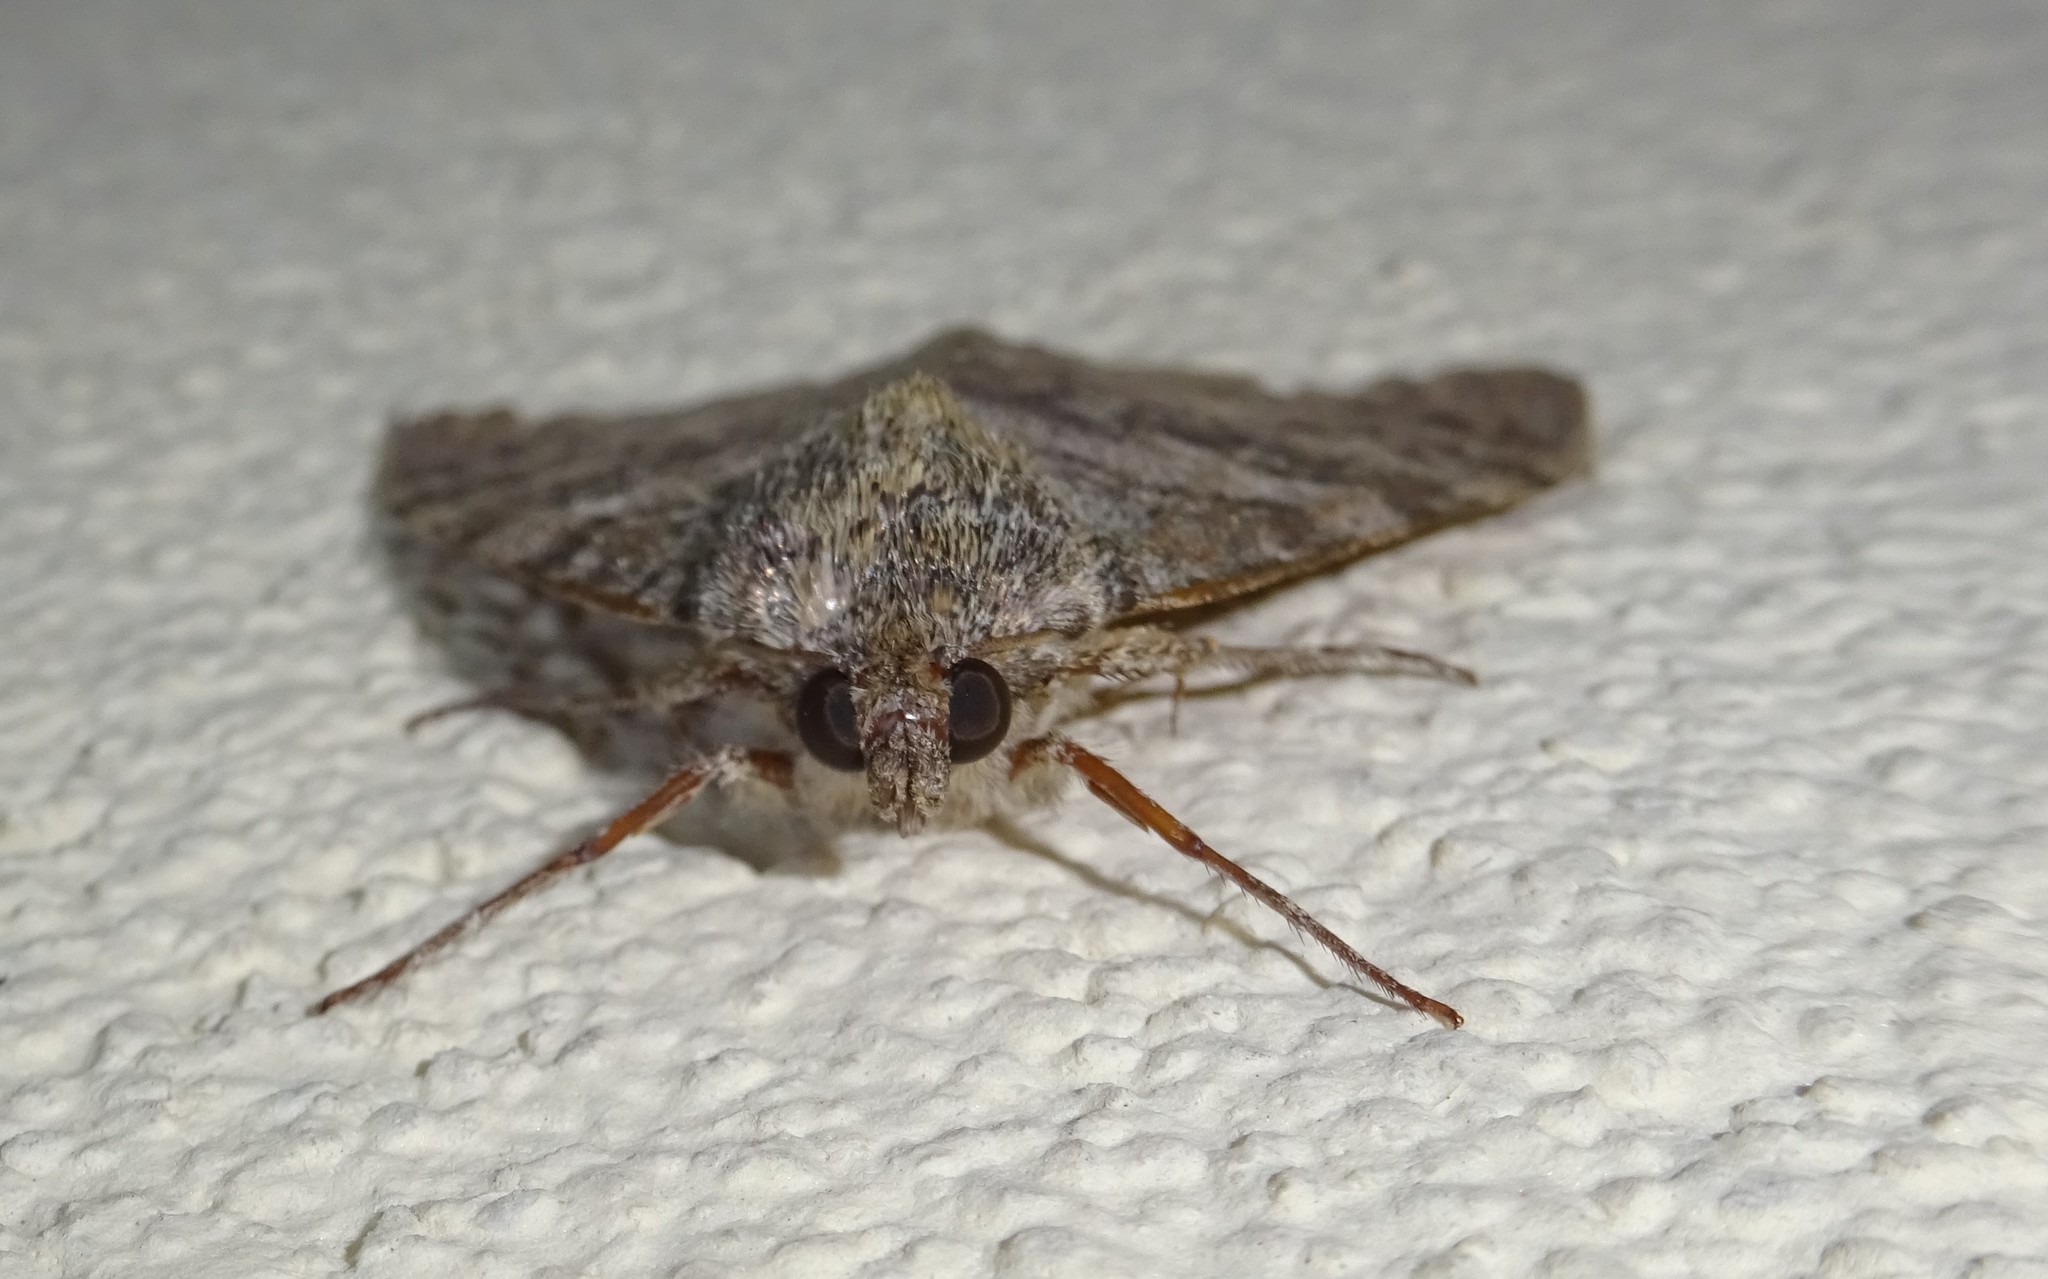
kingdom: Animalia
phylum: Arthropoda
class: Insecta
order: Lepidoptera
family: Erebidae
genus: Catocala
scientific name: Catocala elocata
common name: French red underwing
